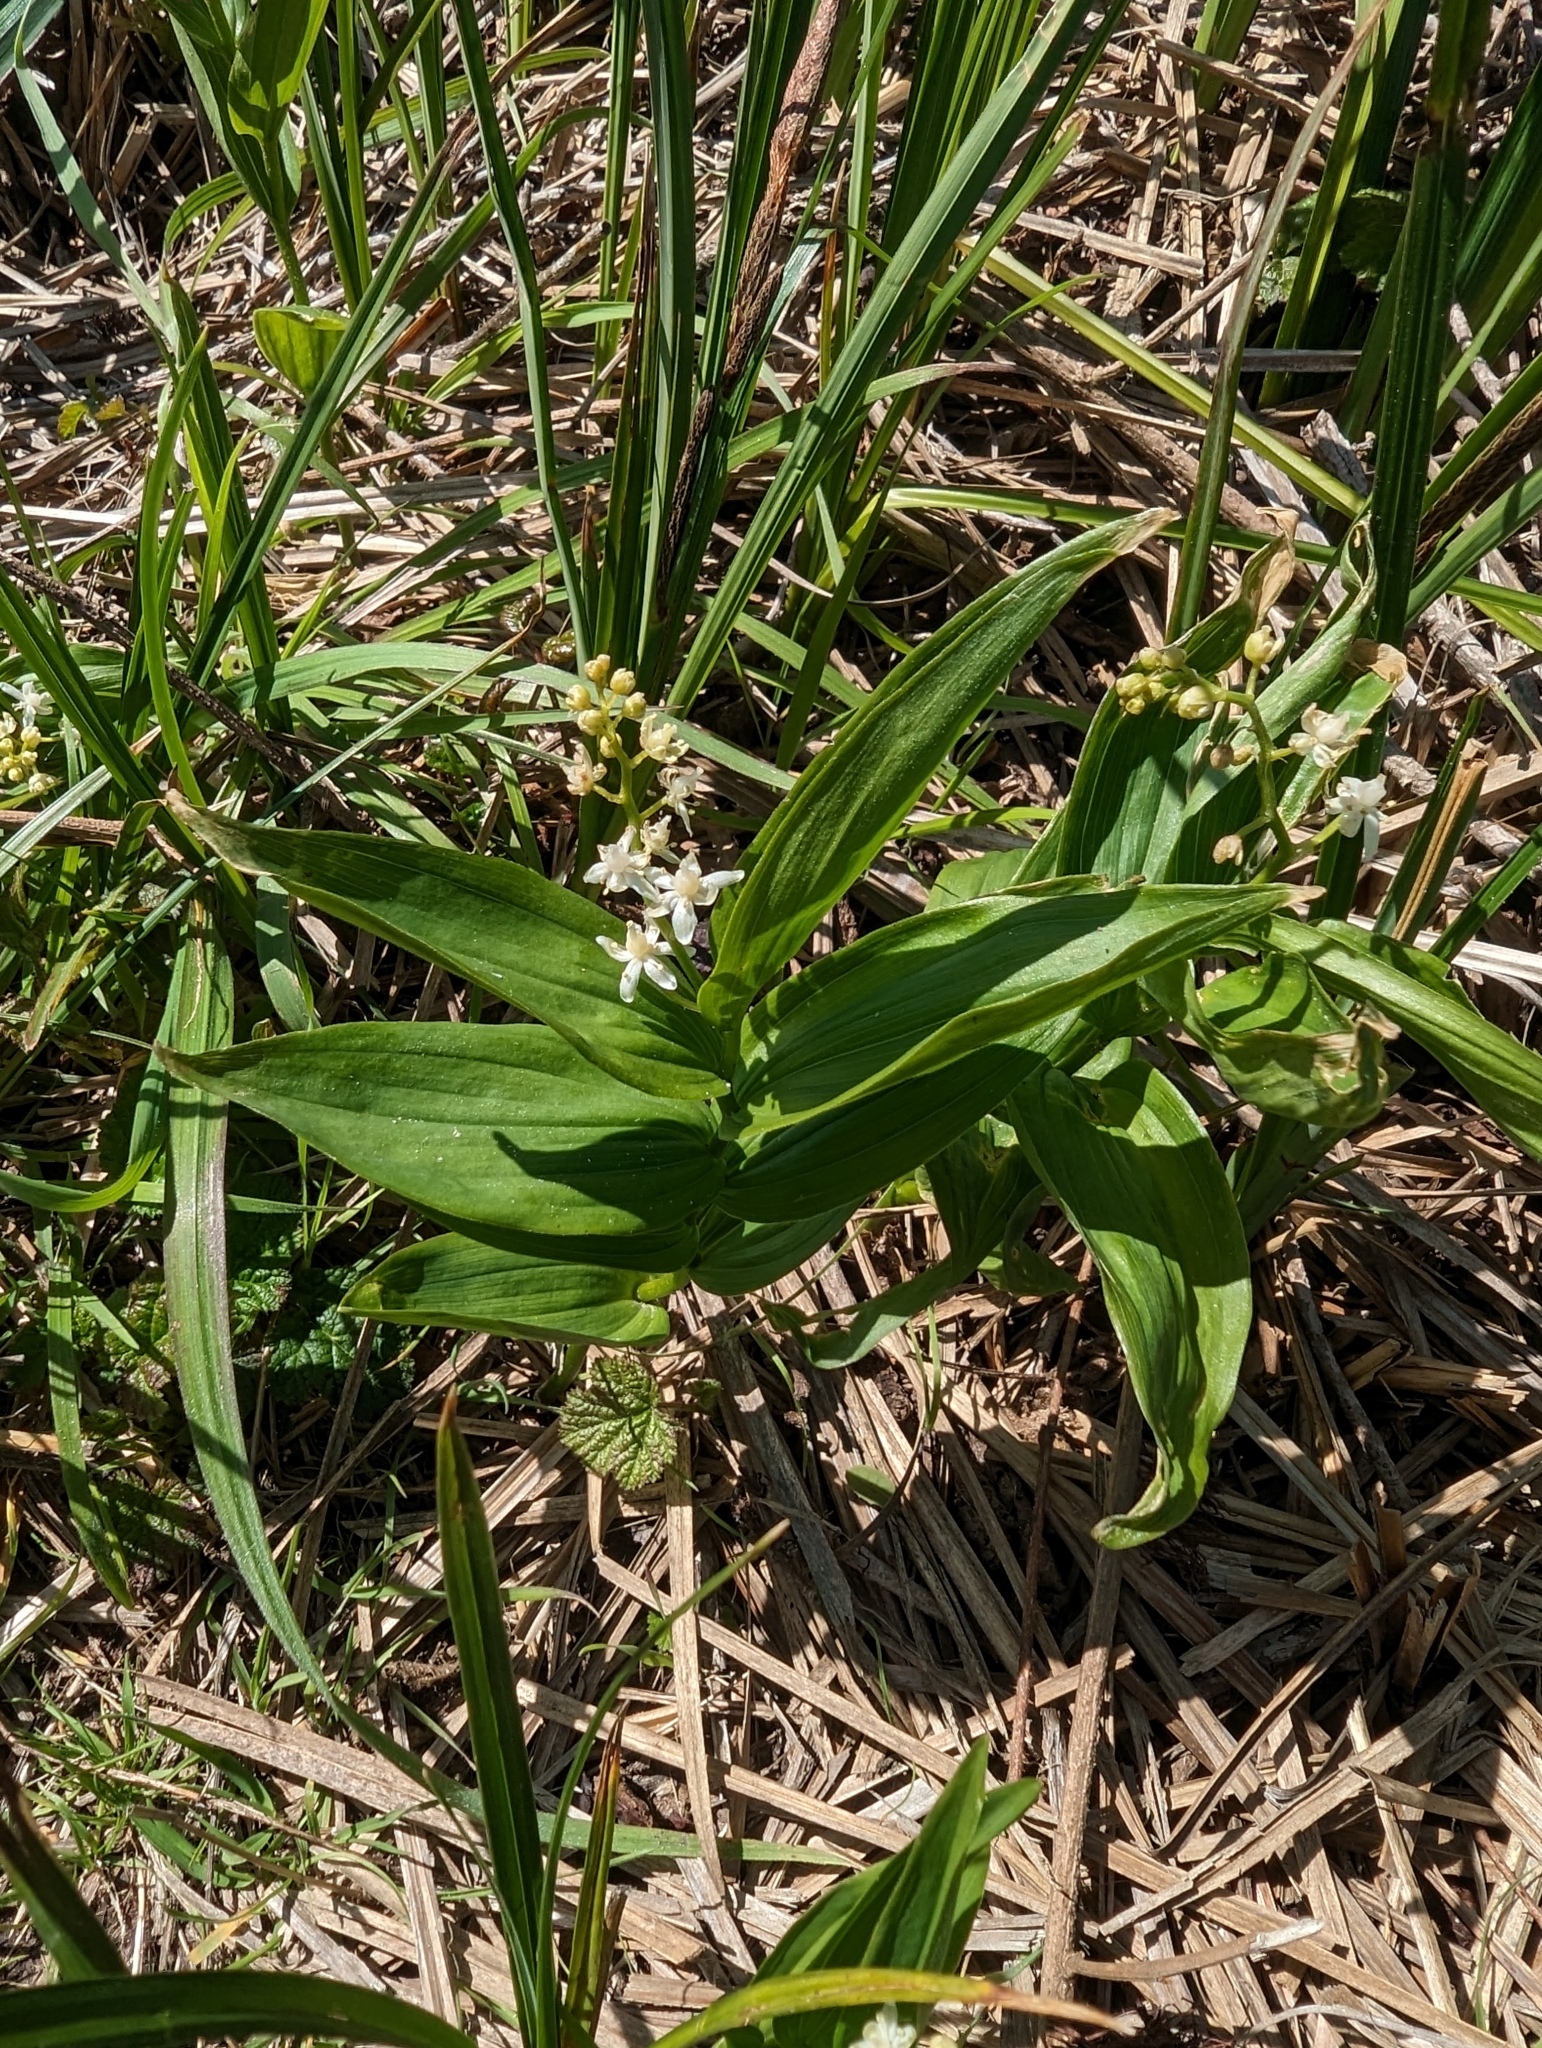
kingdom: Plantae
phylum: Tracheophyta
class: Liliopsida
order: Asparagales
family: Asparagaceae
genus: Maianthemum
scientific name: Maianthemum stellatum
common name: Little false solomon's seal
